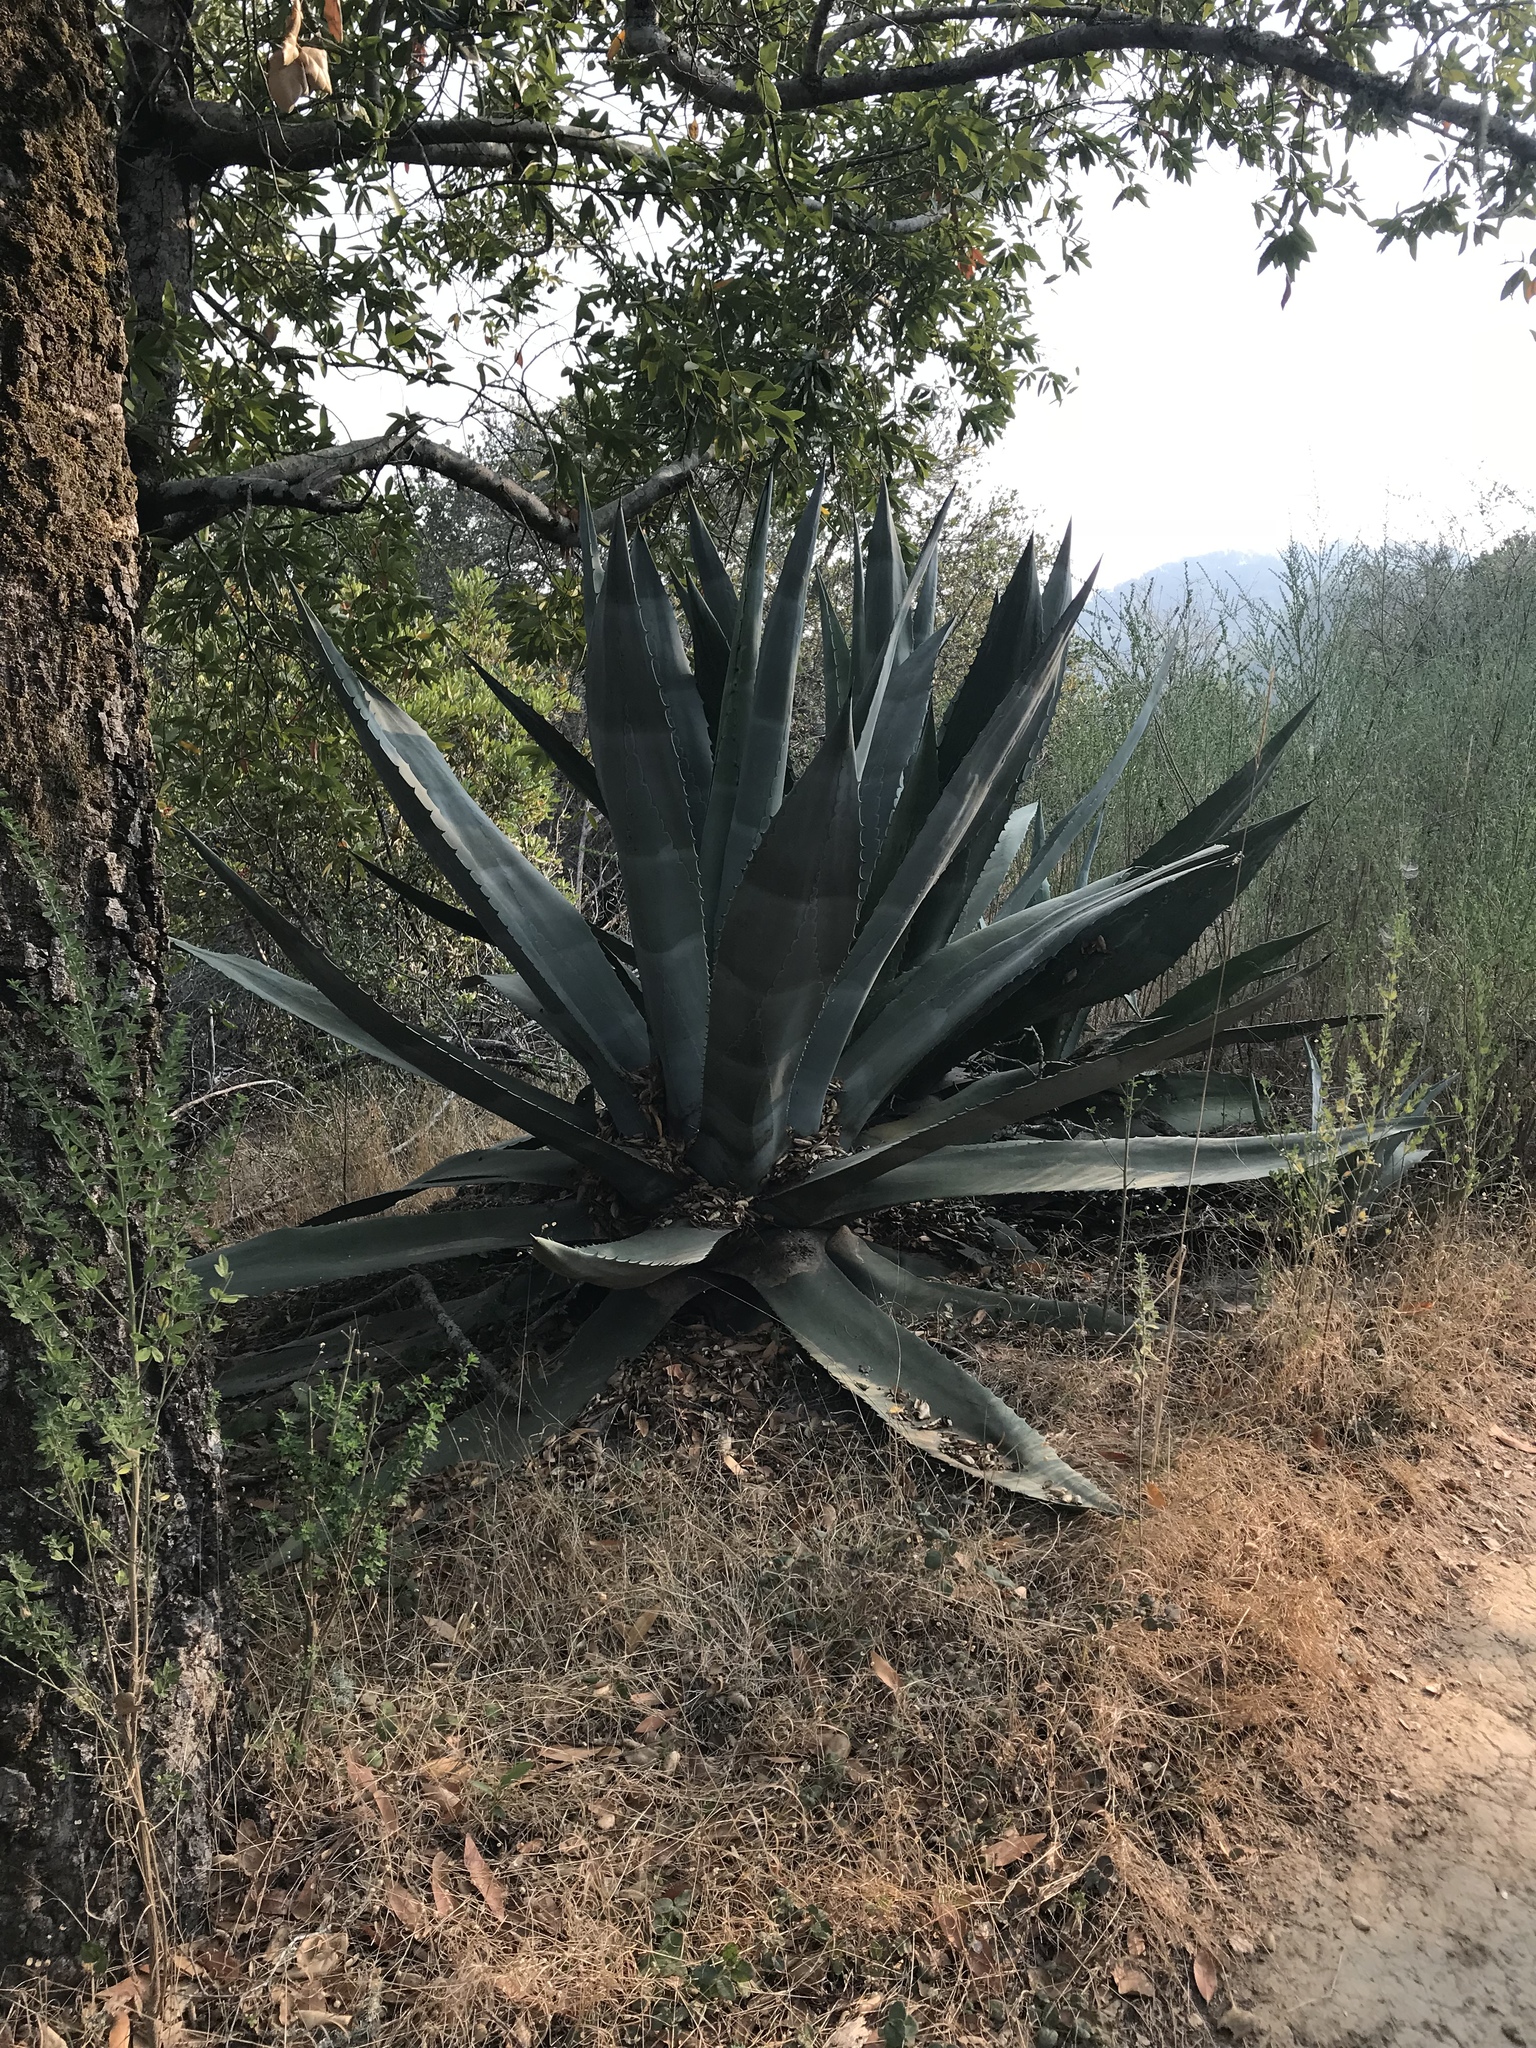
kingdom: Plantae
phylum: Tracheophyta
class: Liliopsida
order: Asparagales
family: Asparagaceae
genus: Agave
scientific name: Agave americana
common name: Centuryplant
